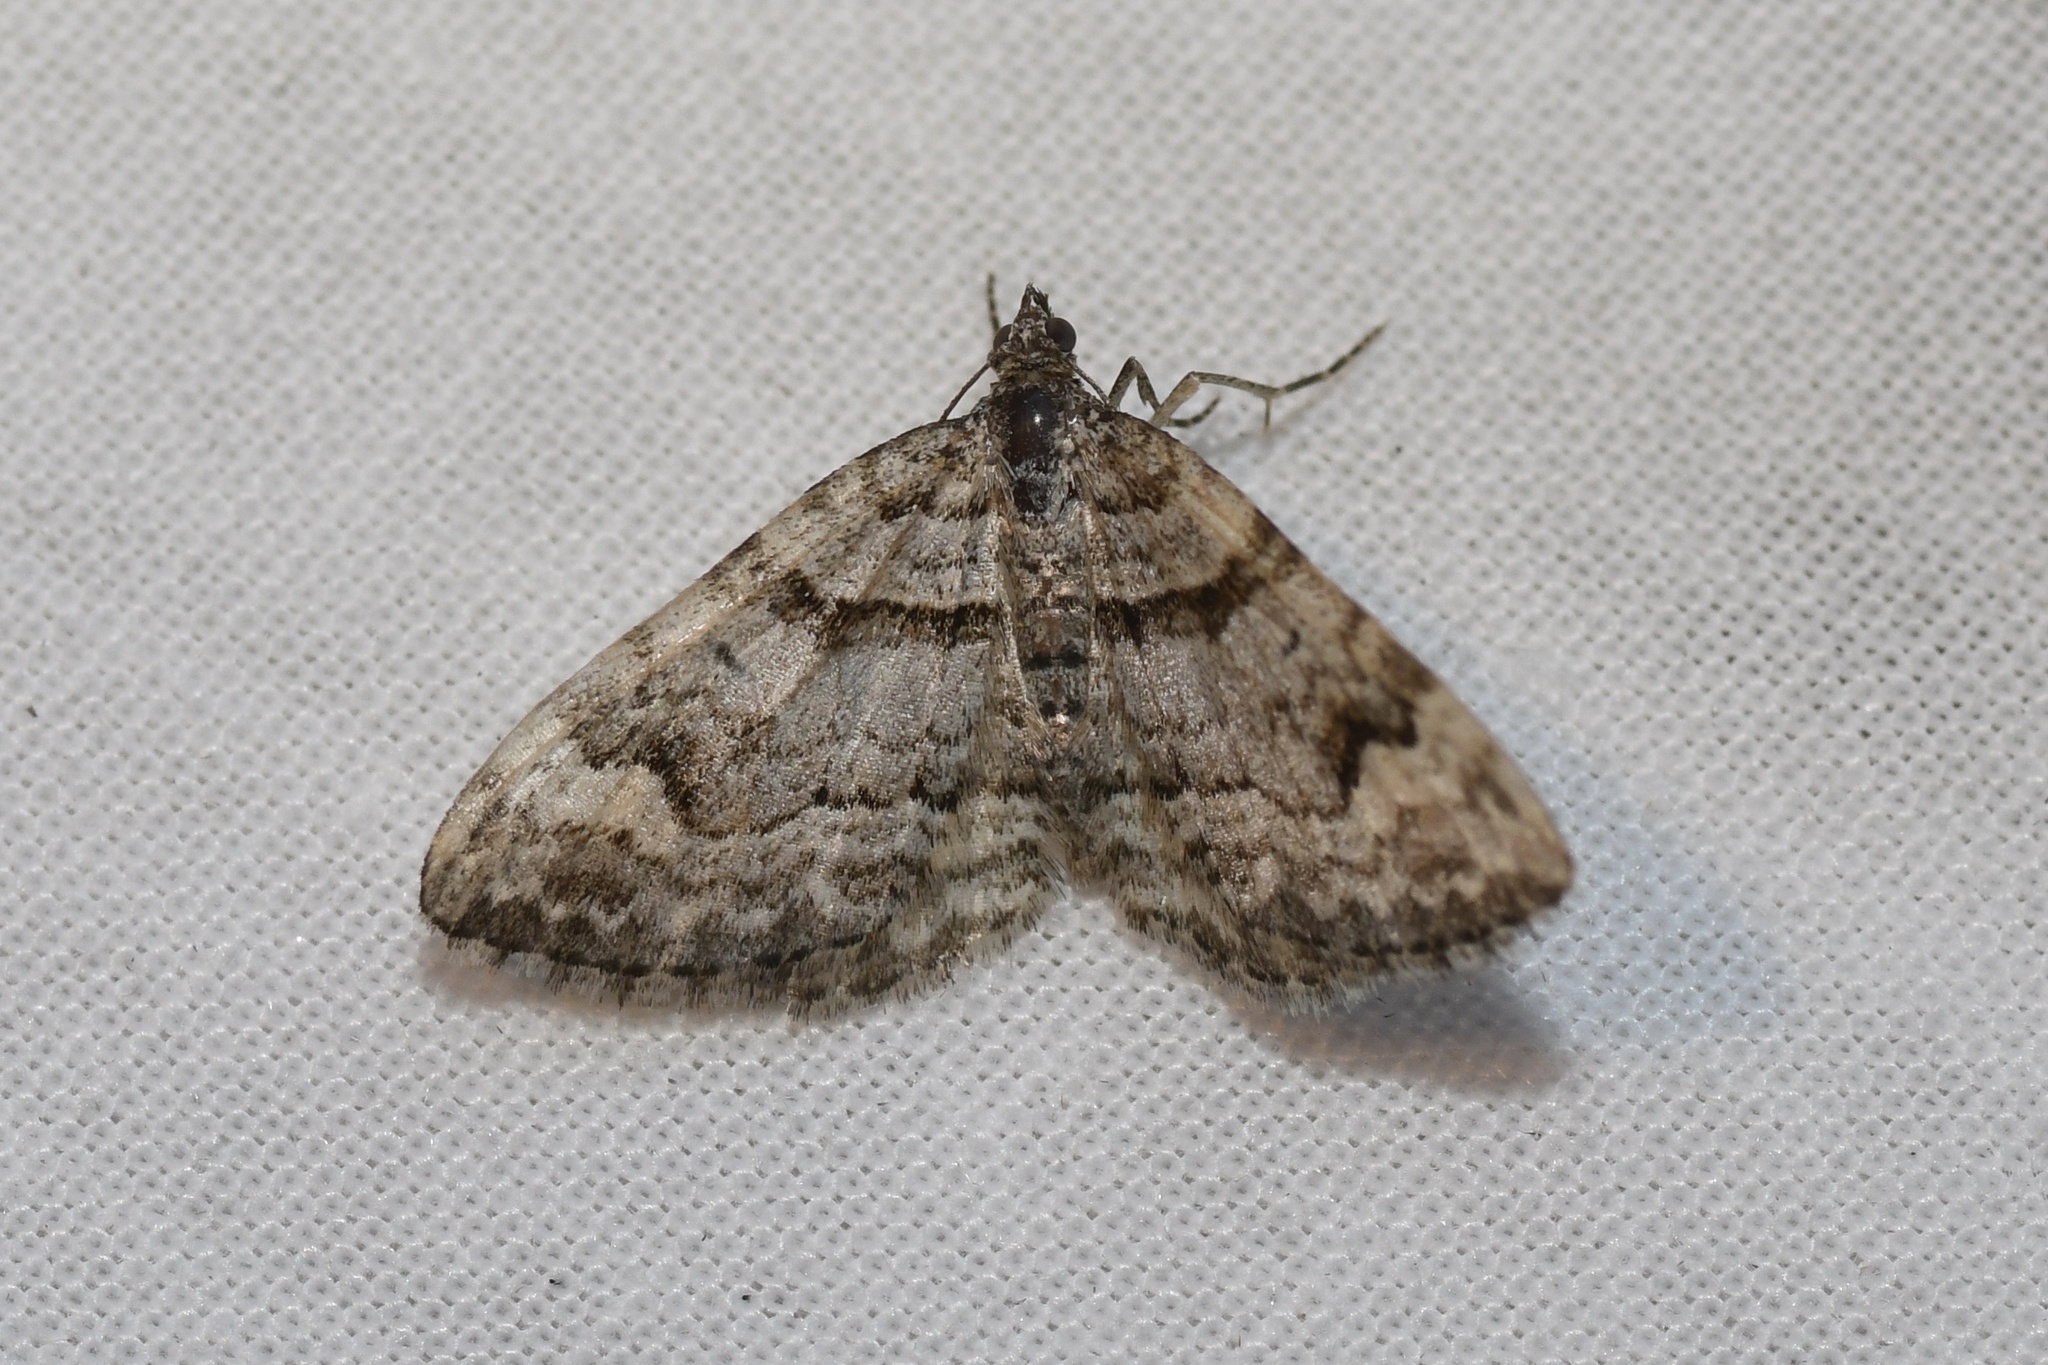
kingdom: Animalia
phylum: Arthropoda
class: Insecta
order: Lepidoptera
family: Geometridae
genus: Xanthorhoe
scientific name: Xanthorhoe abrasaria
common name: Northern carpet
